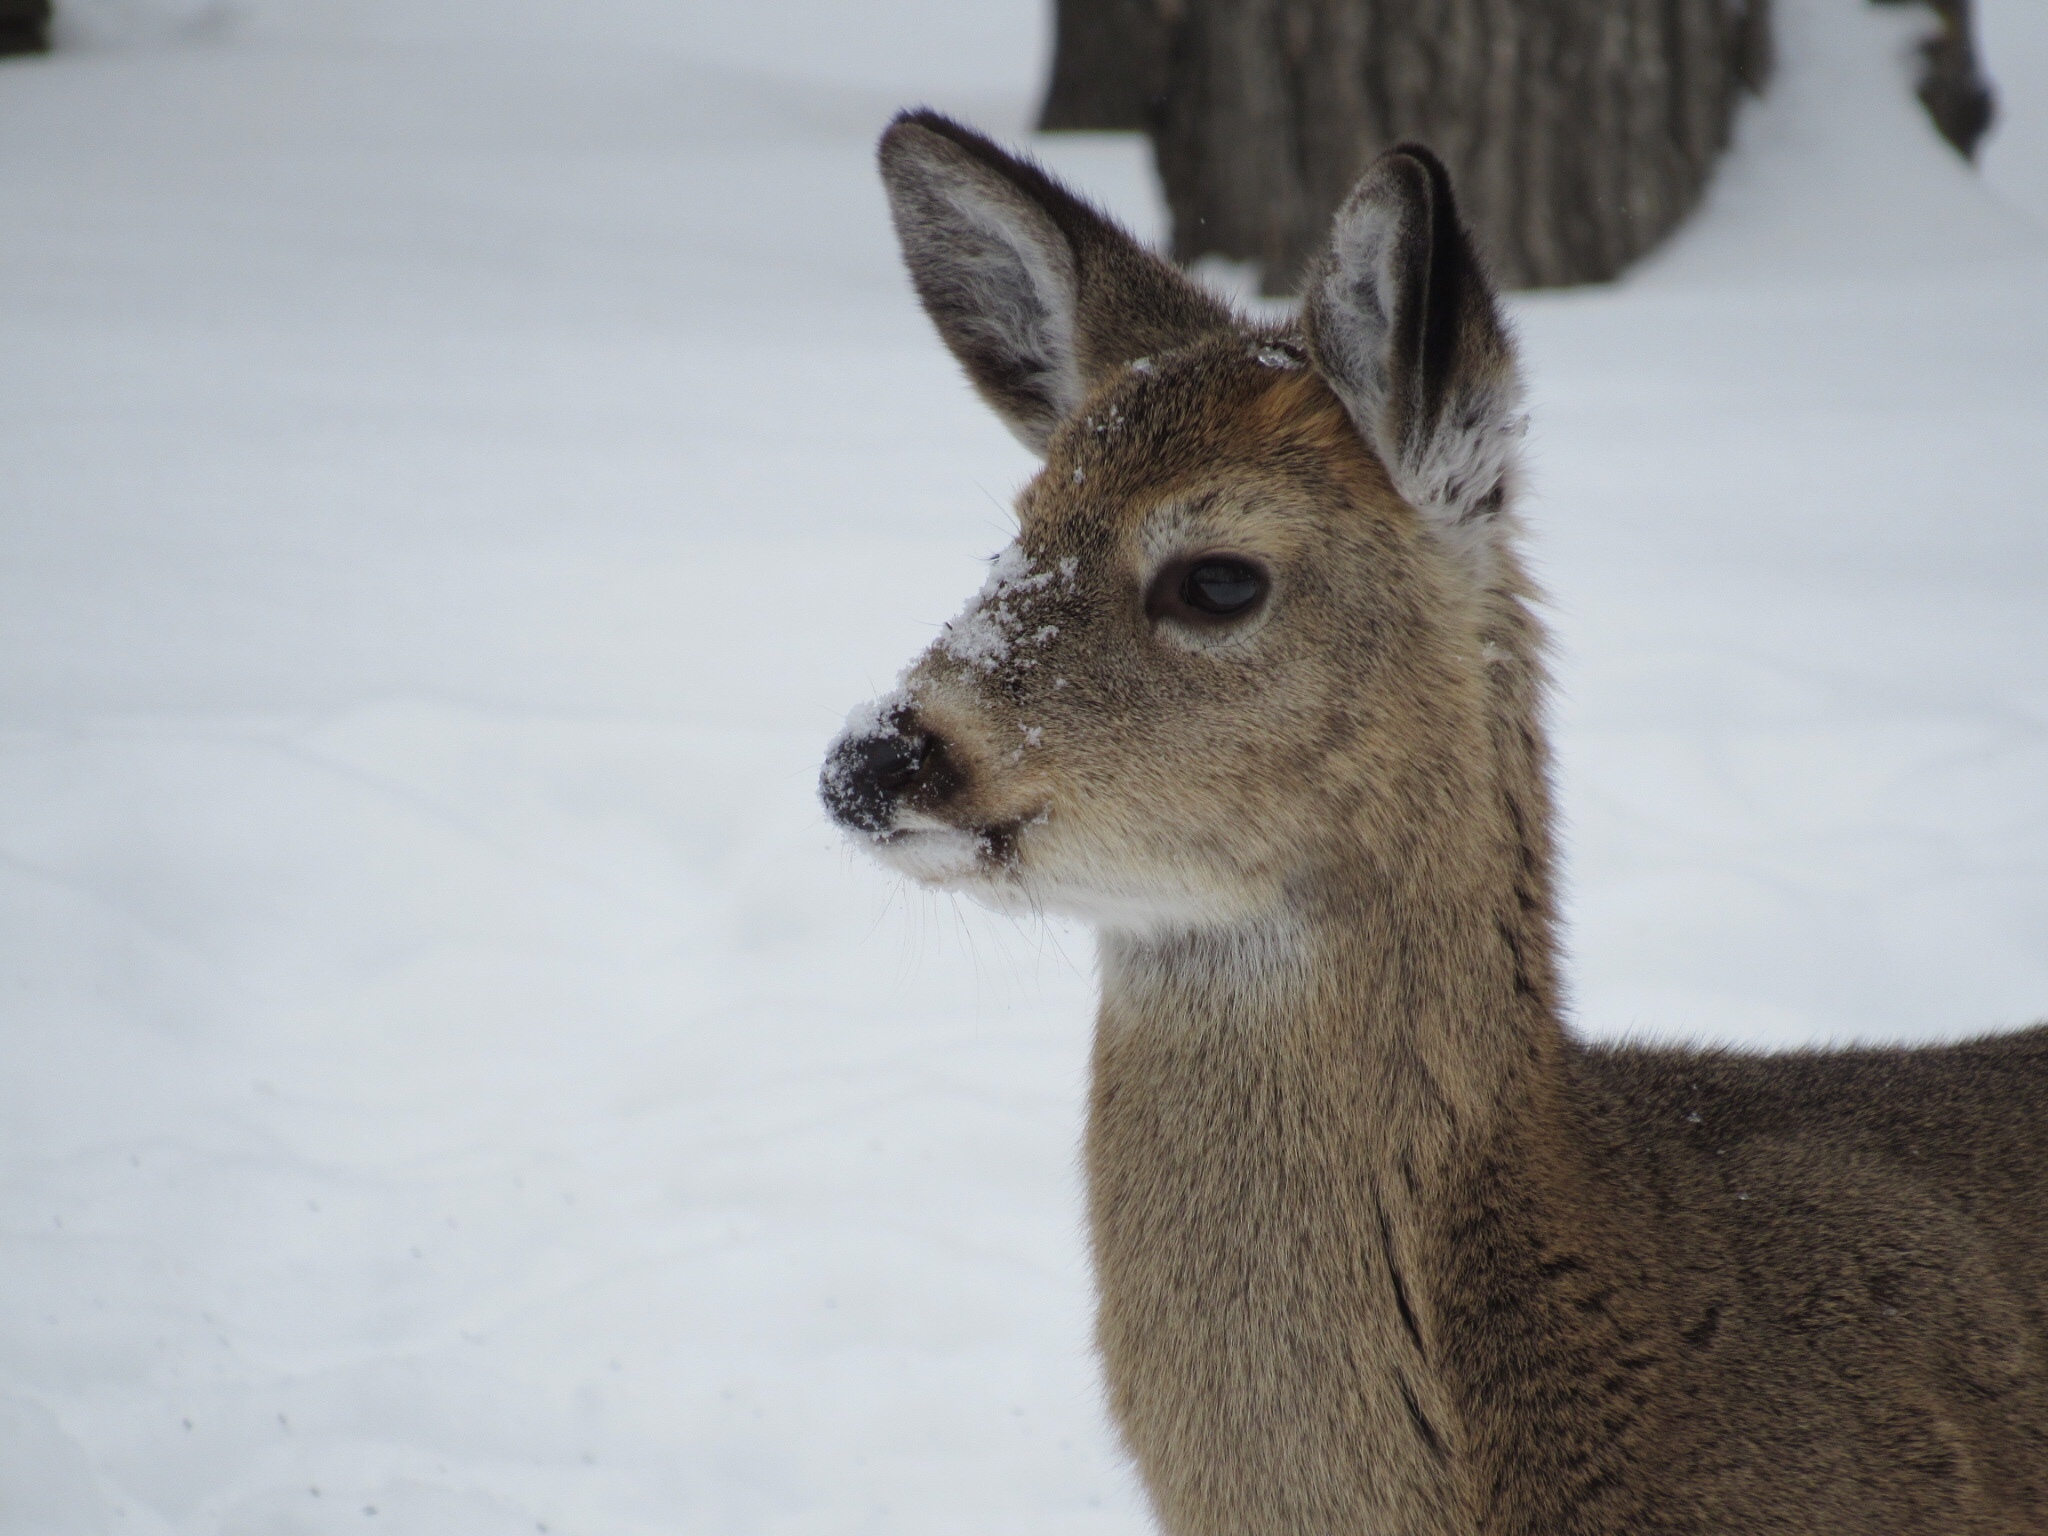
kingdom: Animalia
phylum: Chordata
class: Mammalia
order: Artiodactyla
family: Cervidae
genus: Odocoileus
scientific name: Odocoileus virginianus
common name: White-tailed deer
